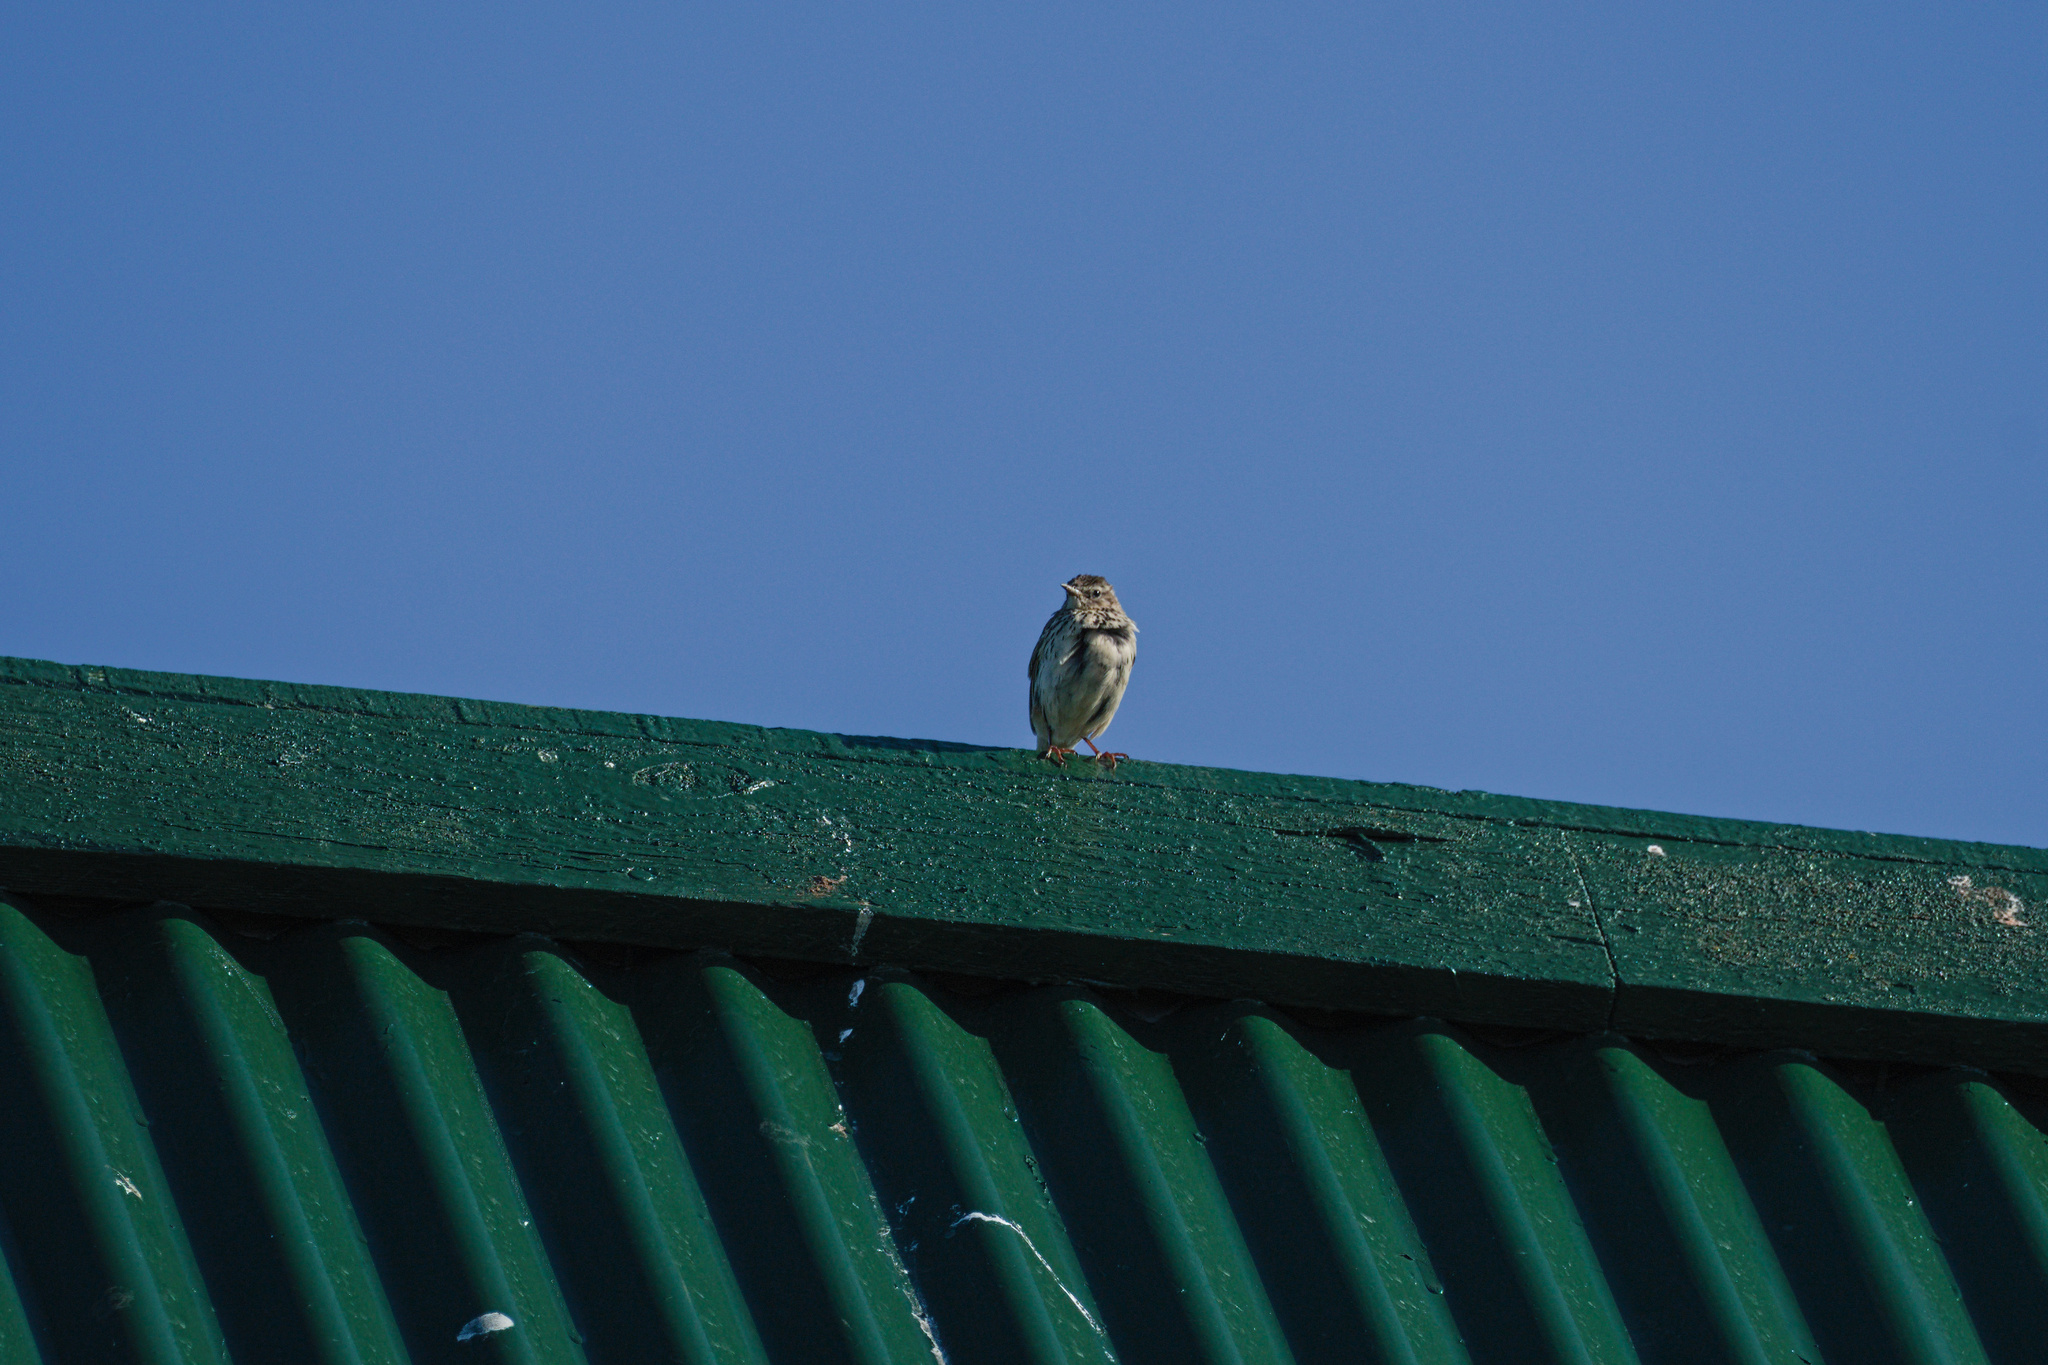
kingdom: Animalia
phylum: Chordata
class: Aves
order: Passeriformes
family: Motacillidae
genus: Anthus
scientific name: Anthus pratensis
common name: Meadow pipit
